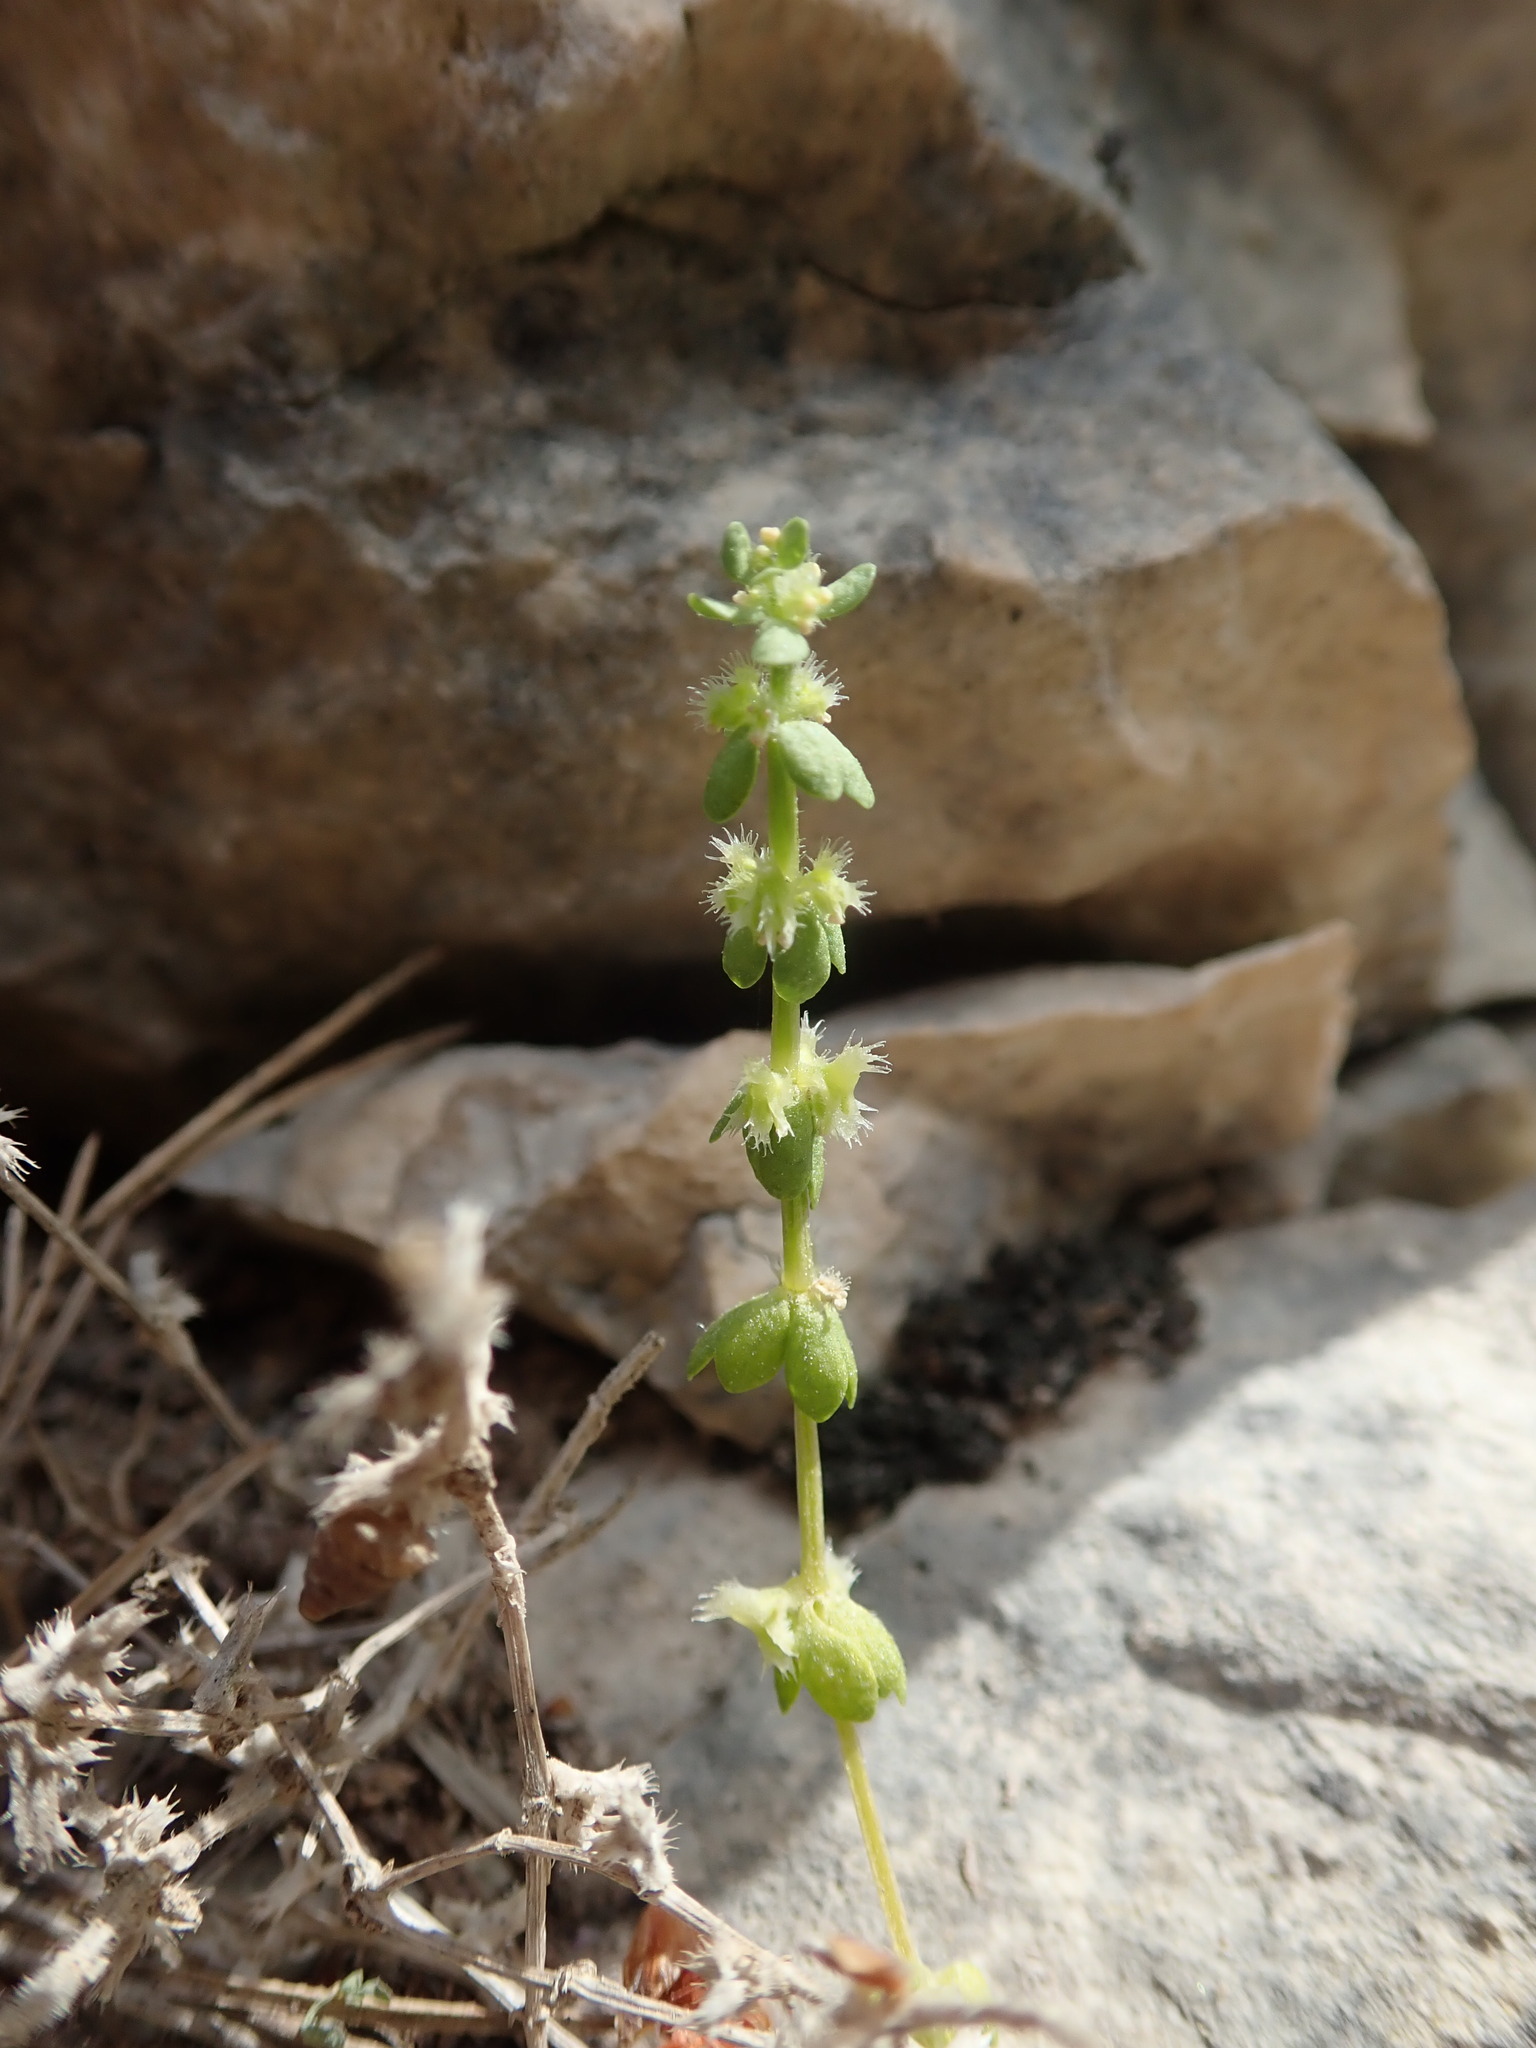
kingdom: Plantae
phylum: Tracheophyta
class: Magnoliopsida
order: Gentianales
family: Rubiaceae
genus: Valantia
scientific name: Valantia muralis
